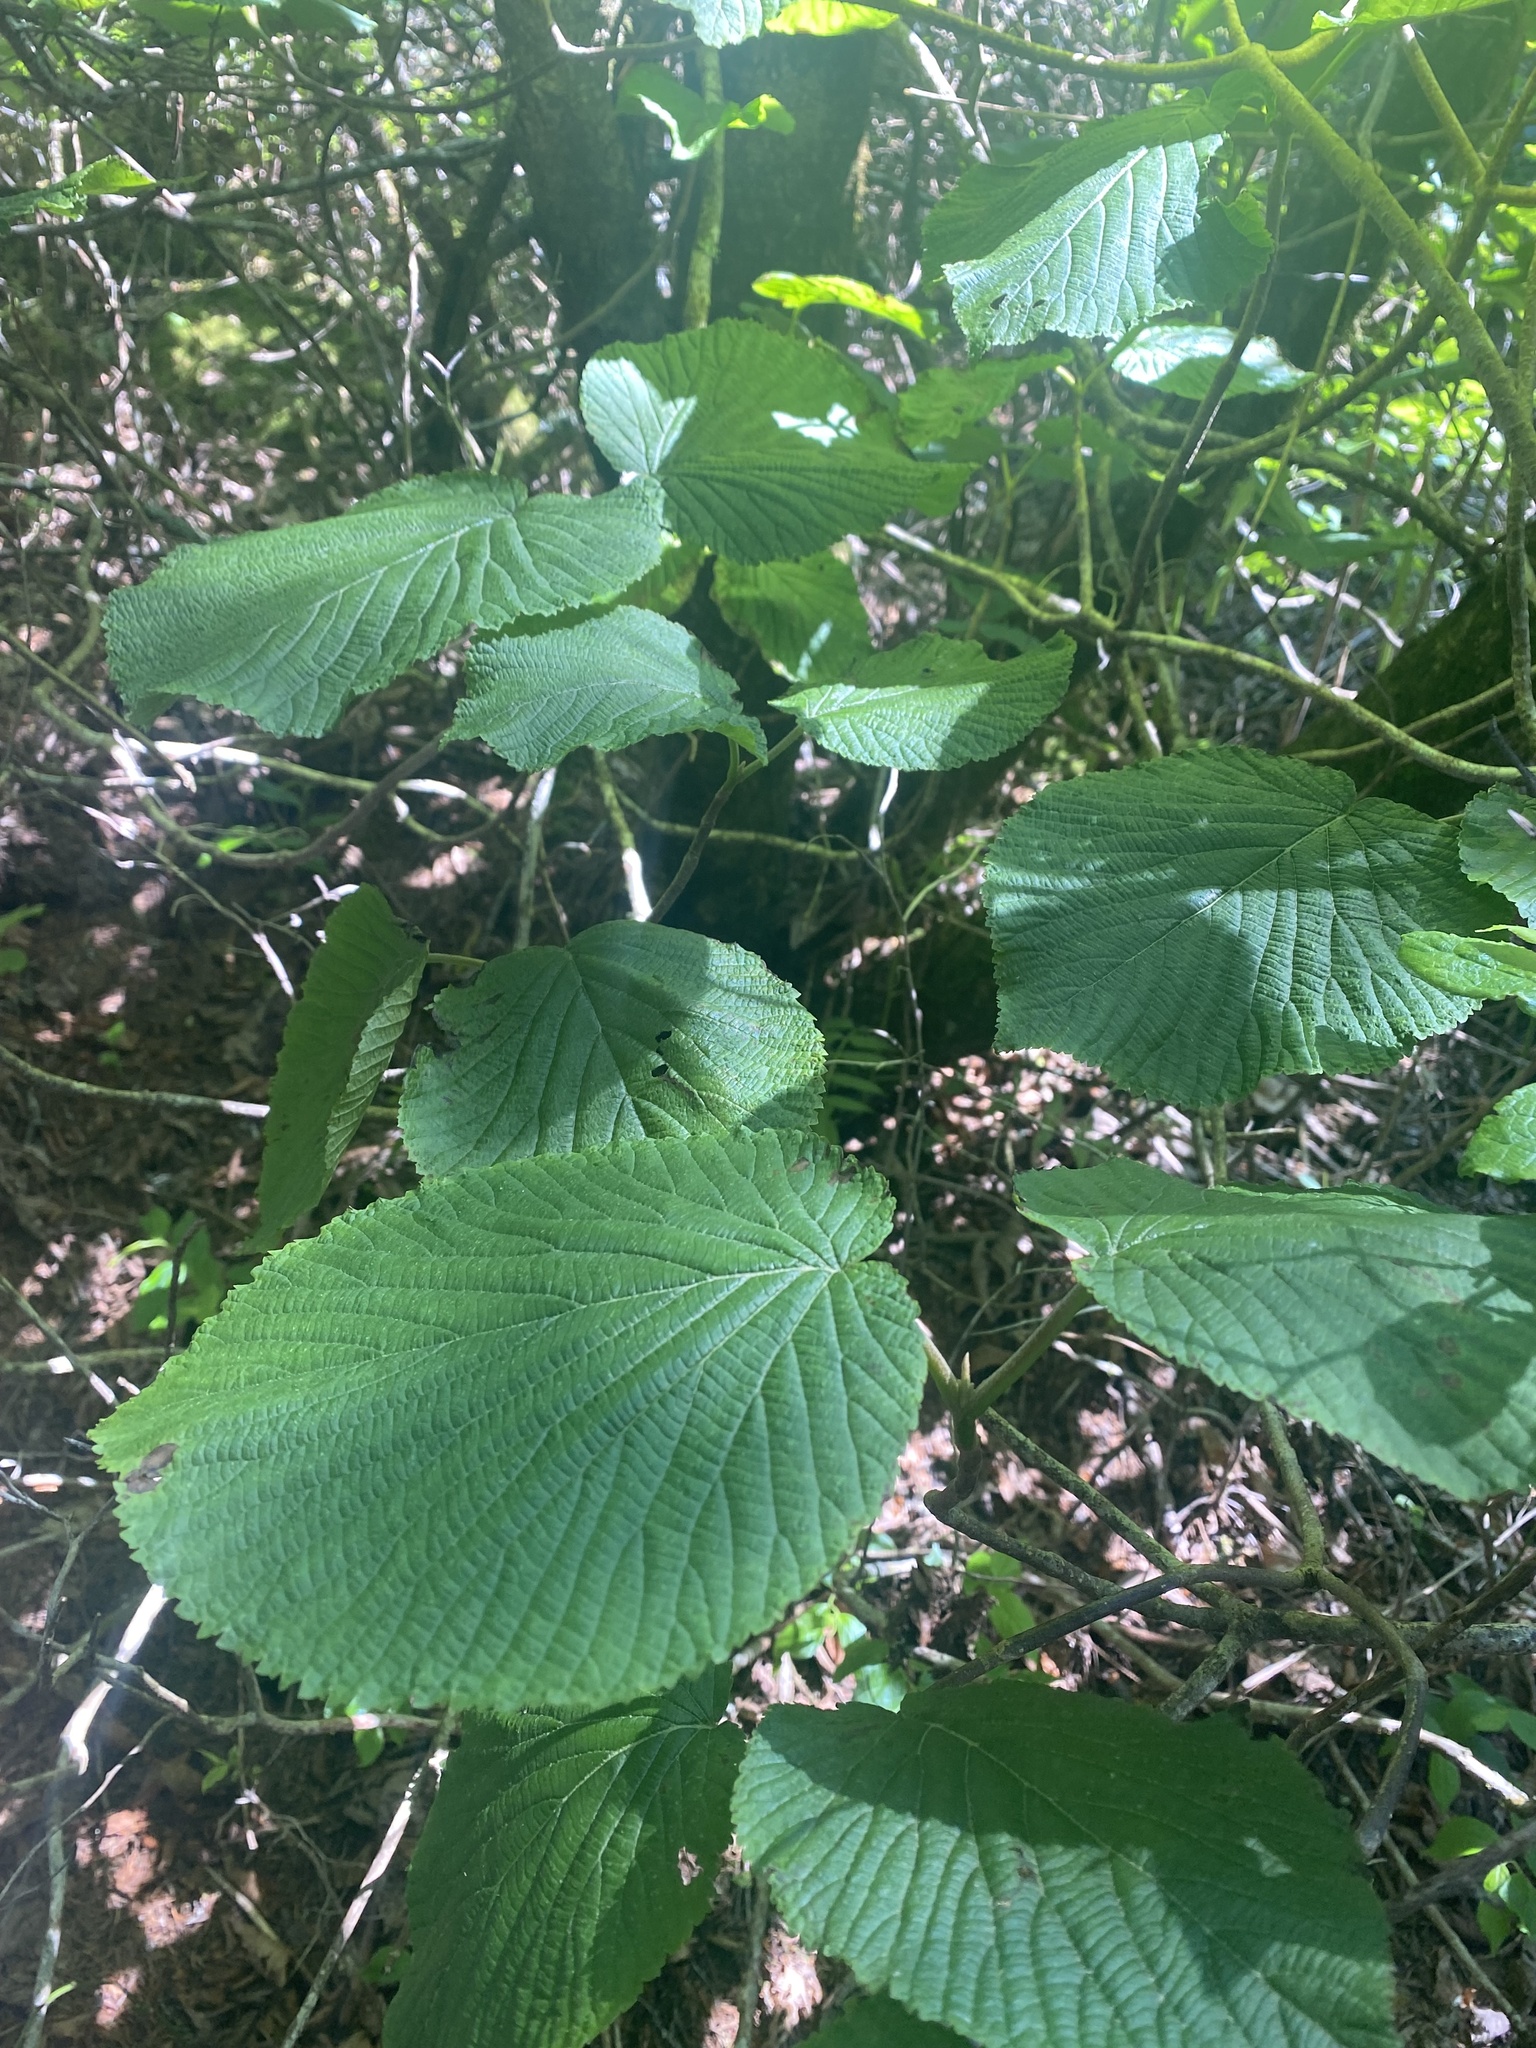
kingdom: Plantae
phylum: Tracheophyta
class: Magnoliopsida
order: Dipsacales
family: Viburnaceae
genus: Viburnum
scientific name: Viburnum lantanoides
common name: Hobblebush
